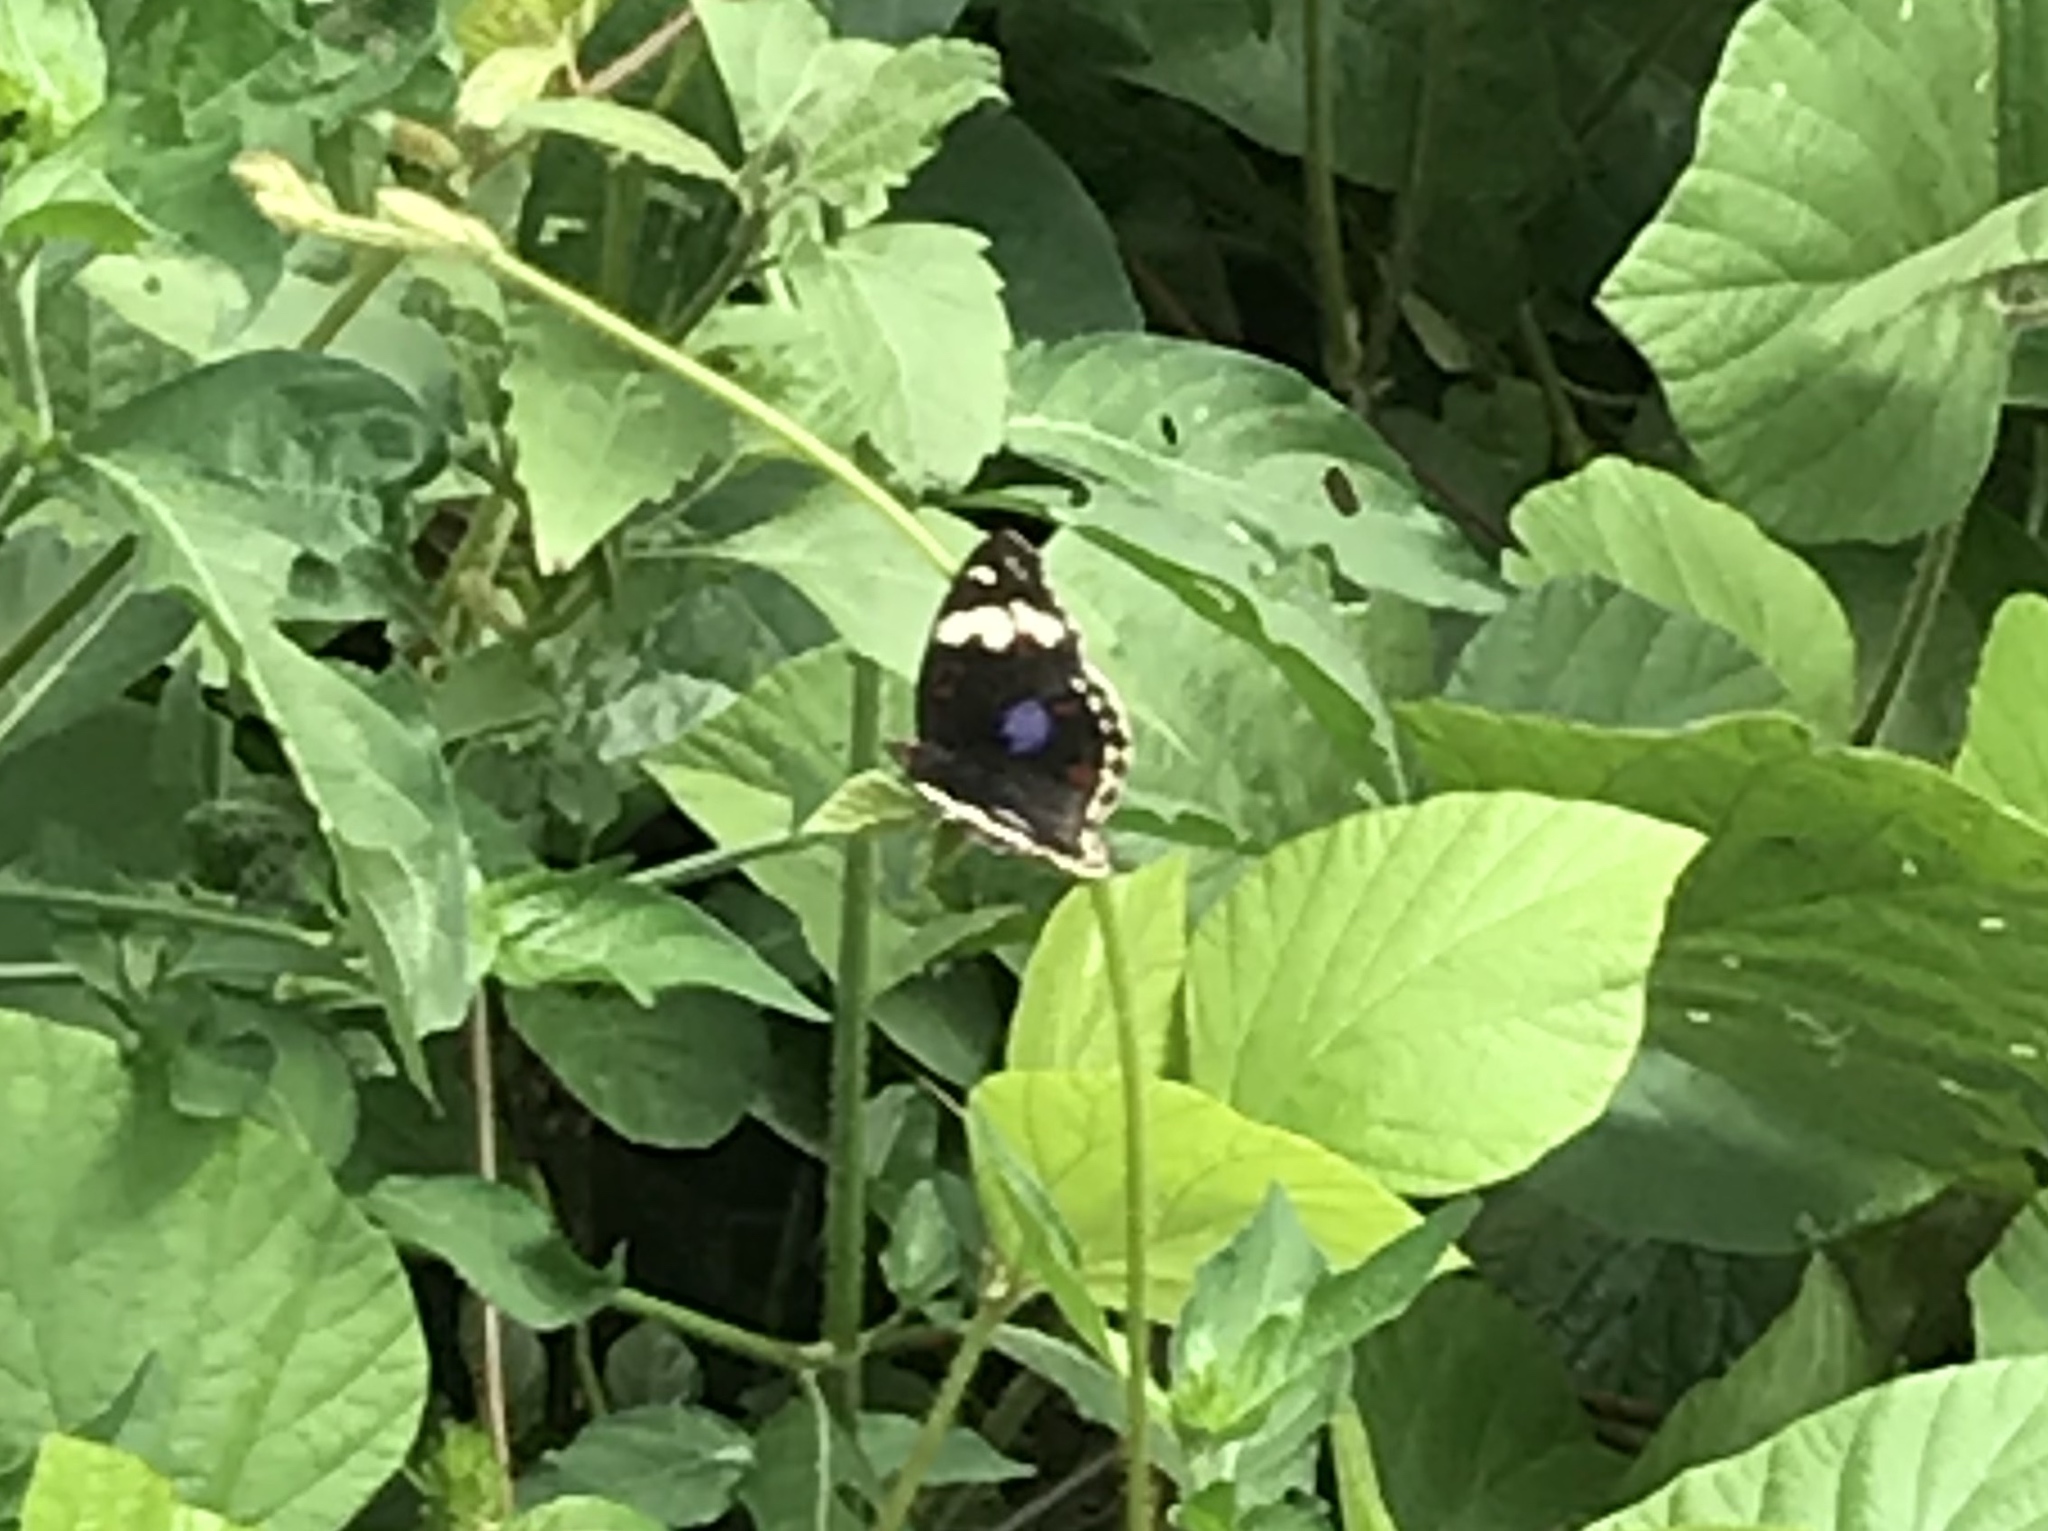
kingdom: Animalia
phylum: Arthropoda
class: Insecta
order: Lepidoptera
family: Nymphalidae
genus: Junonia
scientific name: Junonia oenone
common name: Dark blue pansy
